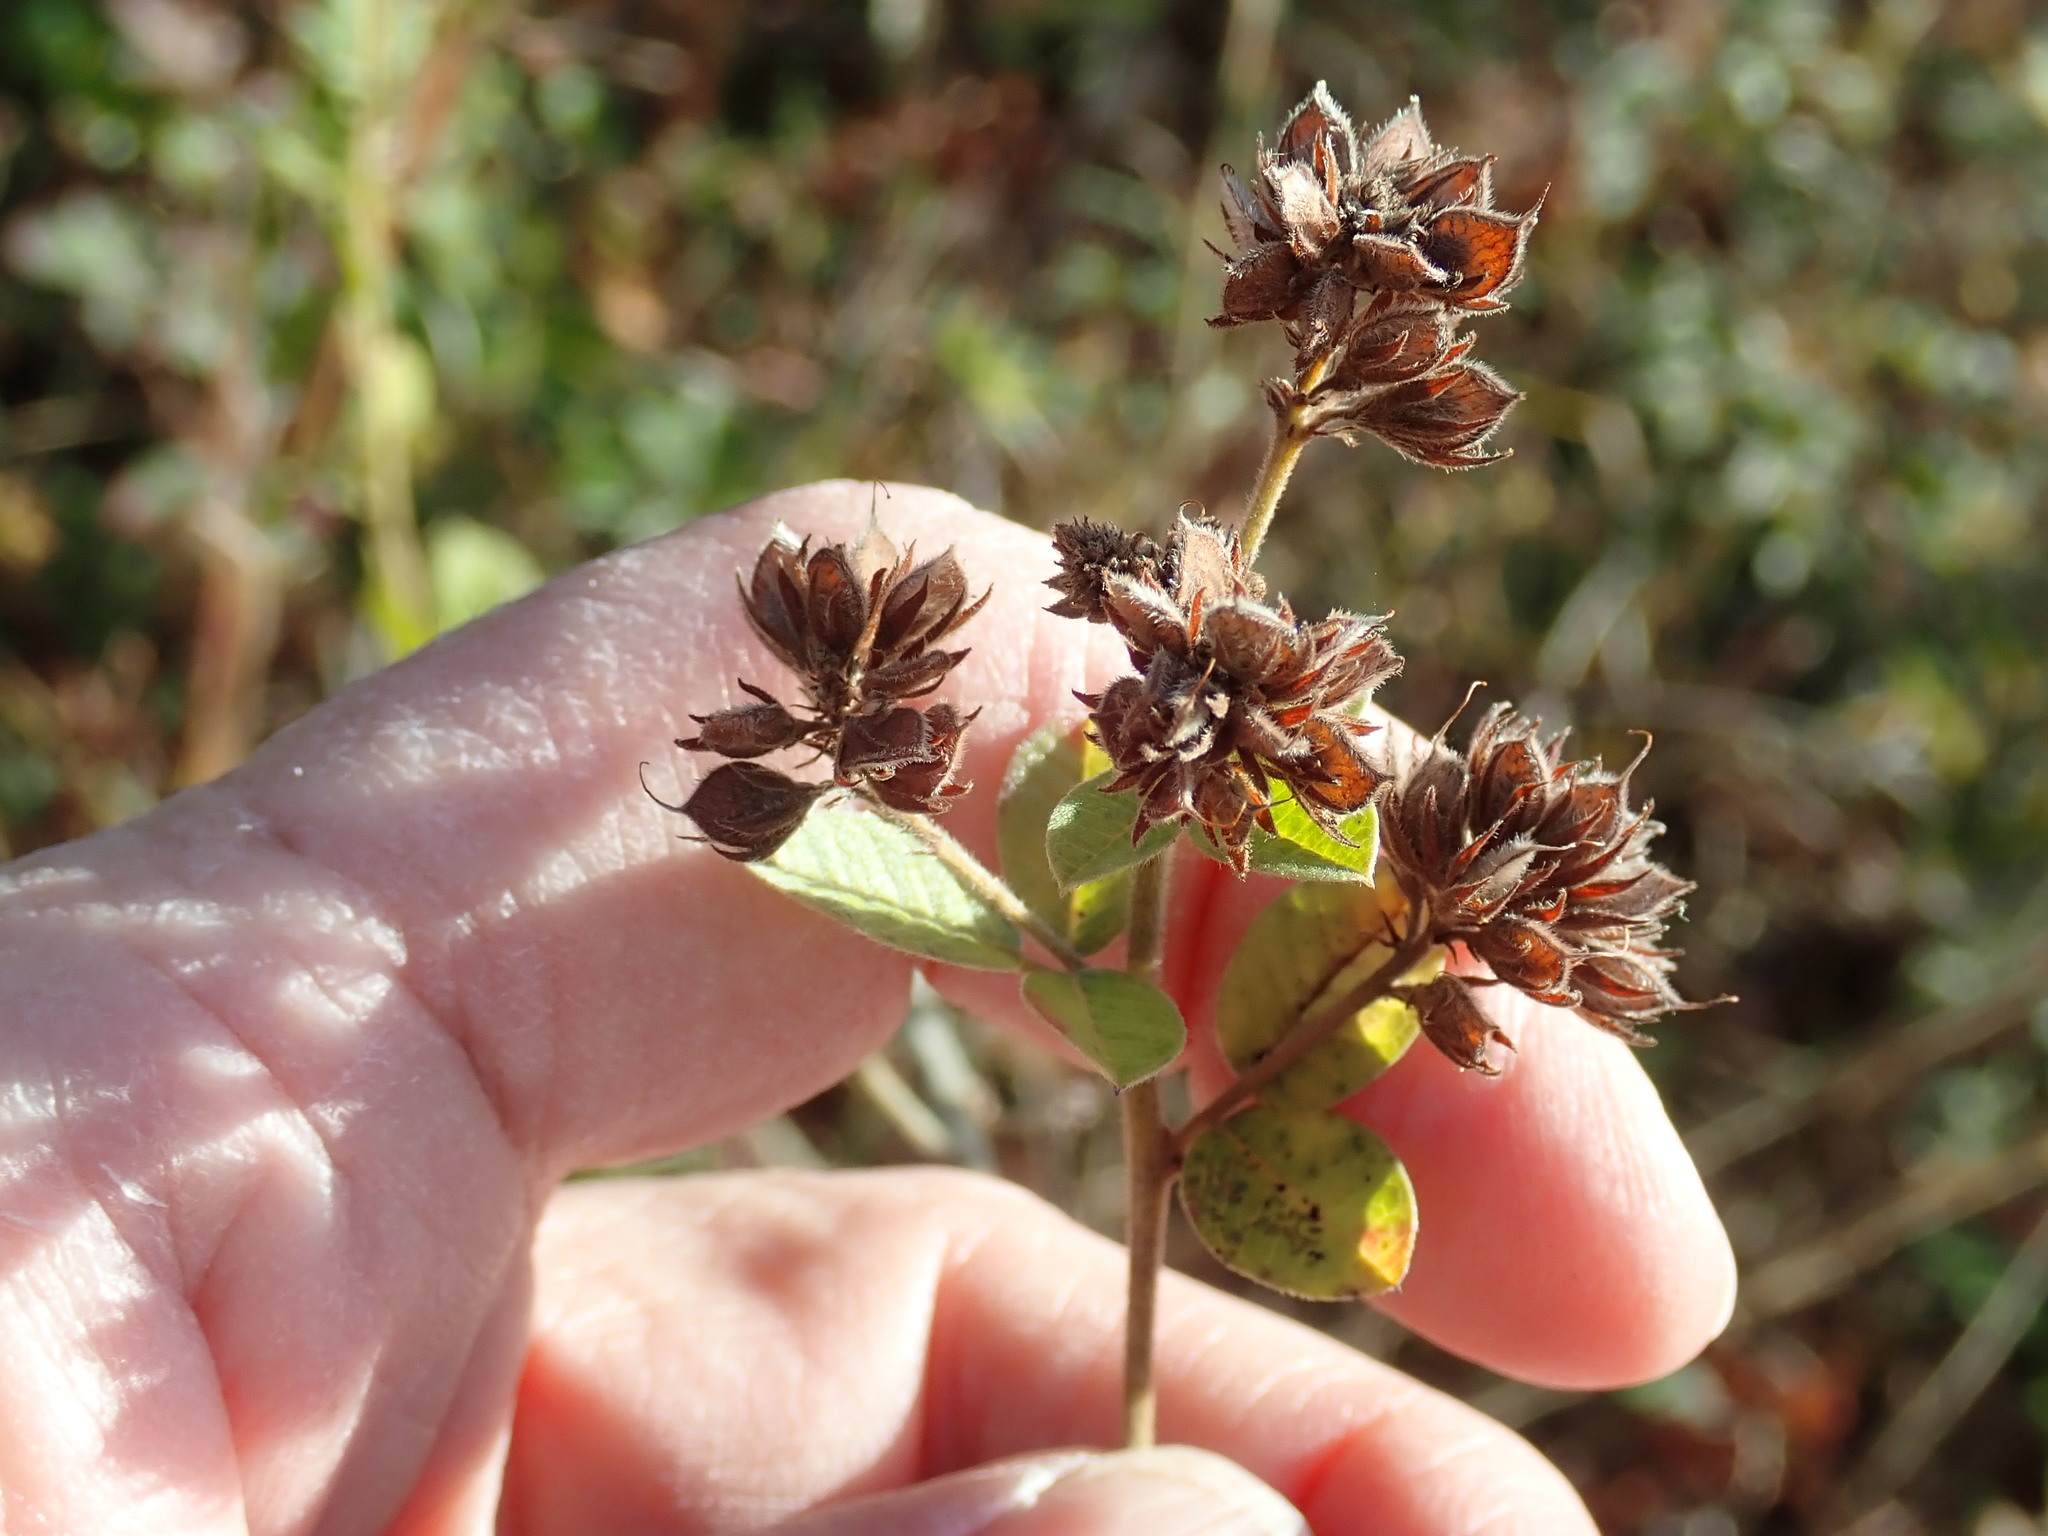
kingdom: Plantae
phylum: Tracheophyta
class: Magnoliopsida
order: Fabales
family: Fabaceae
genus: Lespedeza
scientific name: Lespedeza hirta
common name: Hairy lespedeza
